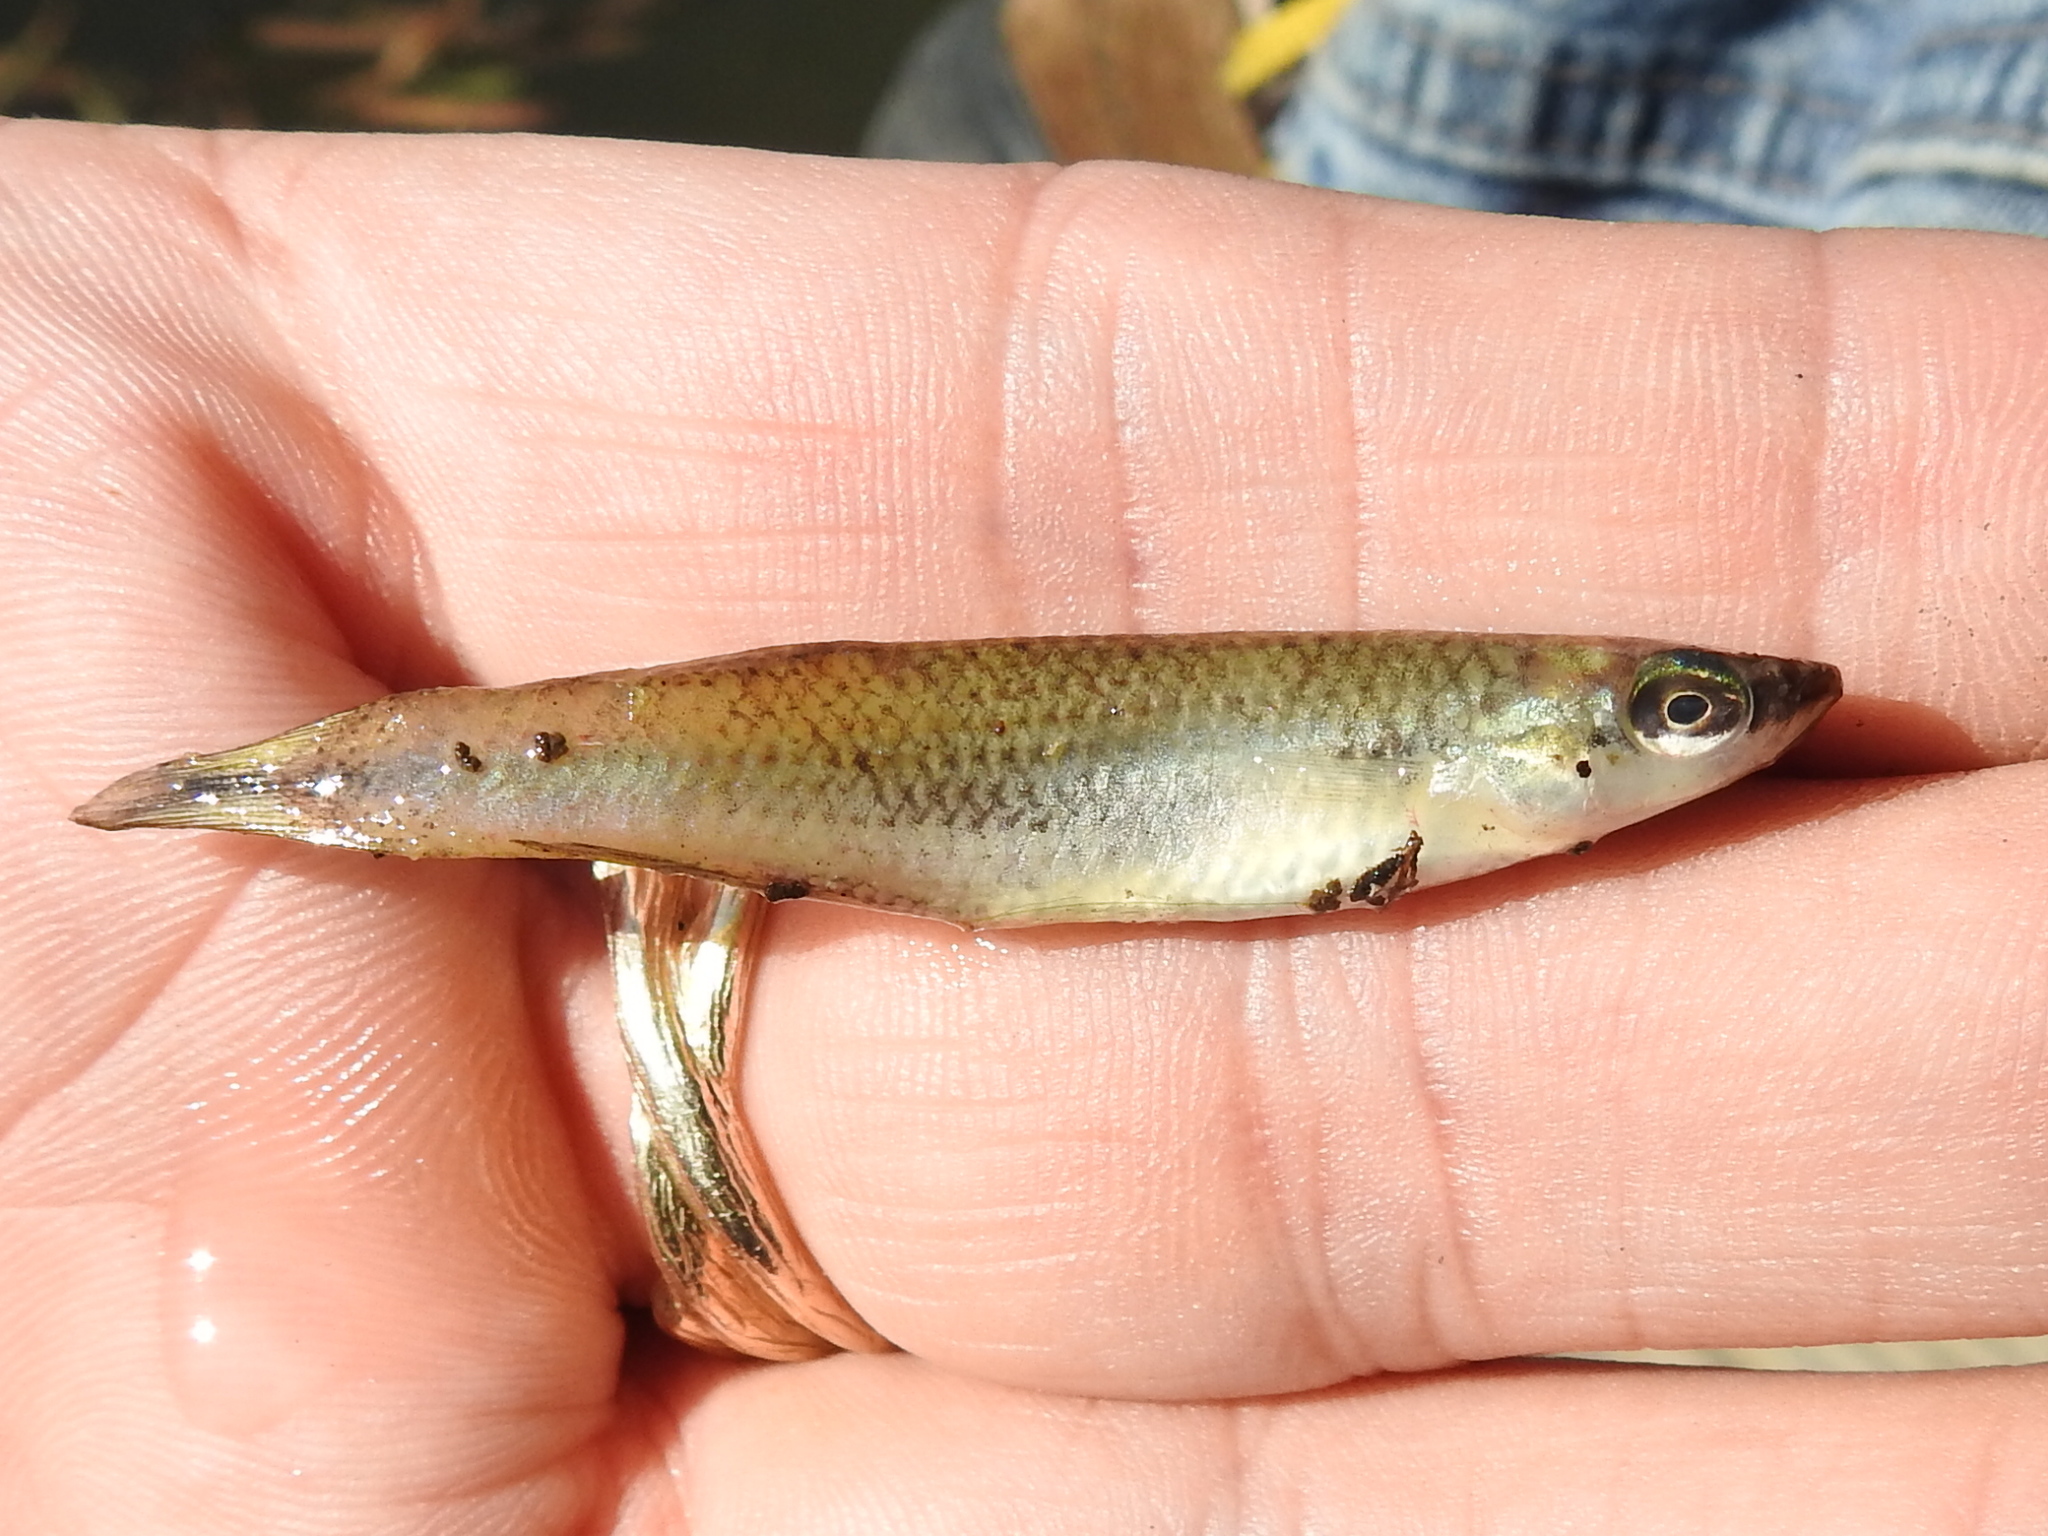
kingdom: Animalia
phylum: Chordata
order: Cyprinodontiformes
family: Fundulidae
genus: Fundulus
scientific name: Fundulus notatus
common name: Blackstripe topminnow
